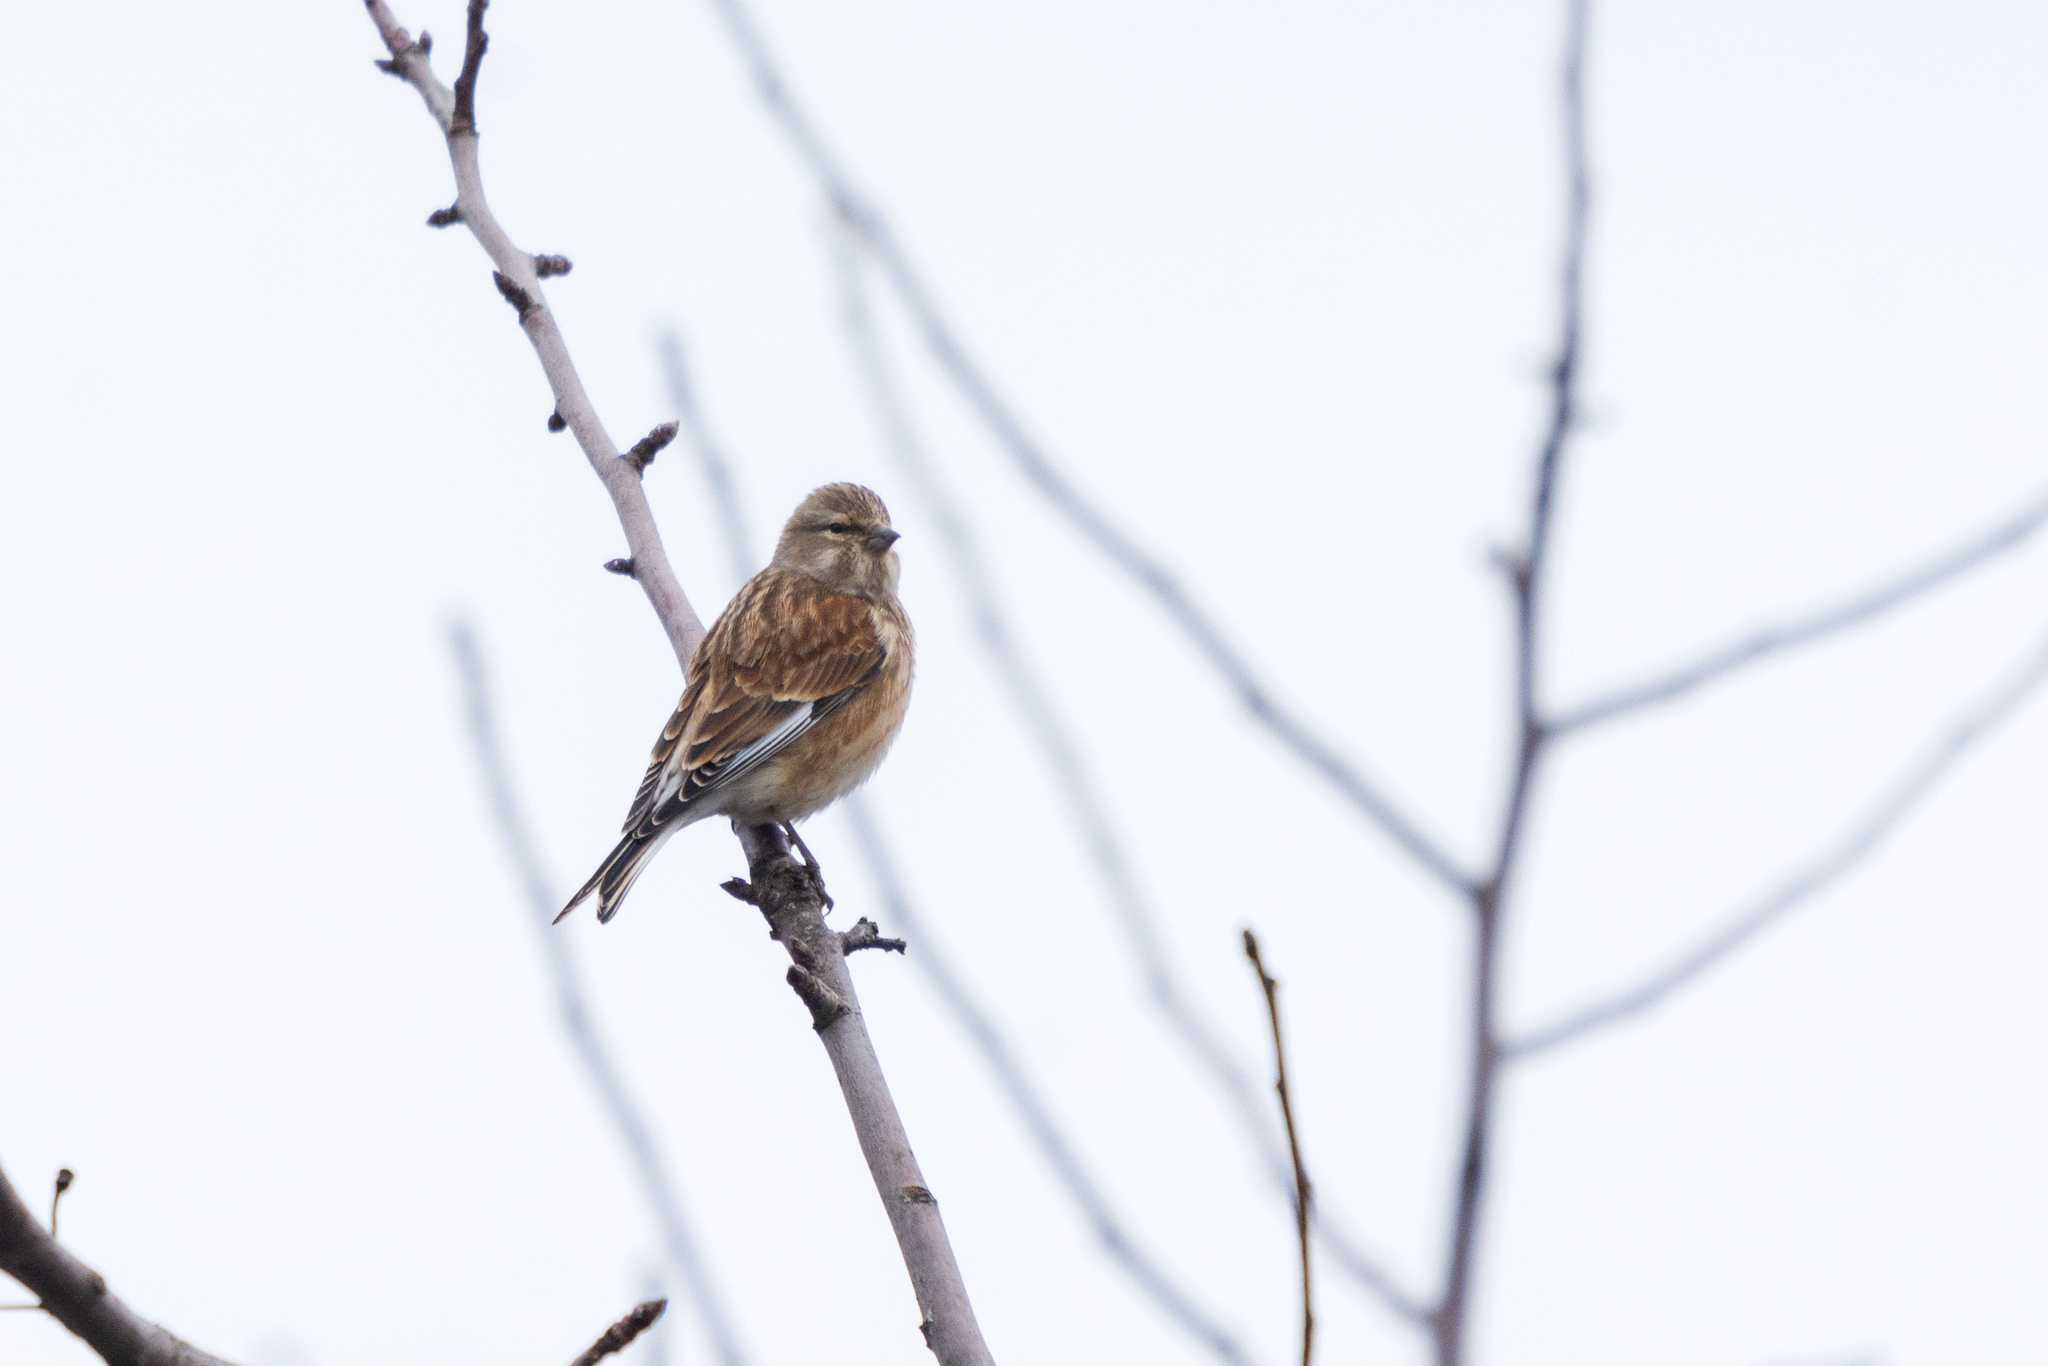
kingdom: Animalia
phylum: Chordata
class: Aves
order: Passeriformes
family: Fringillidae
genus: Linaria
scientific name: Linaria cannabina
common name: Common linnet
